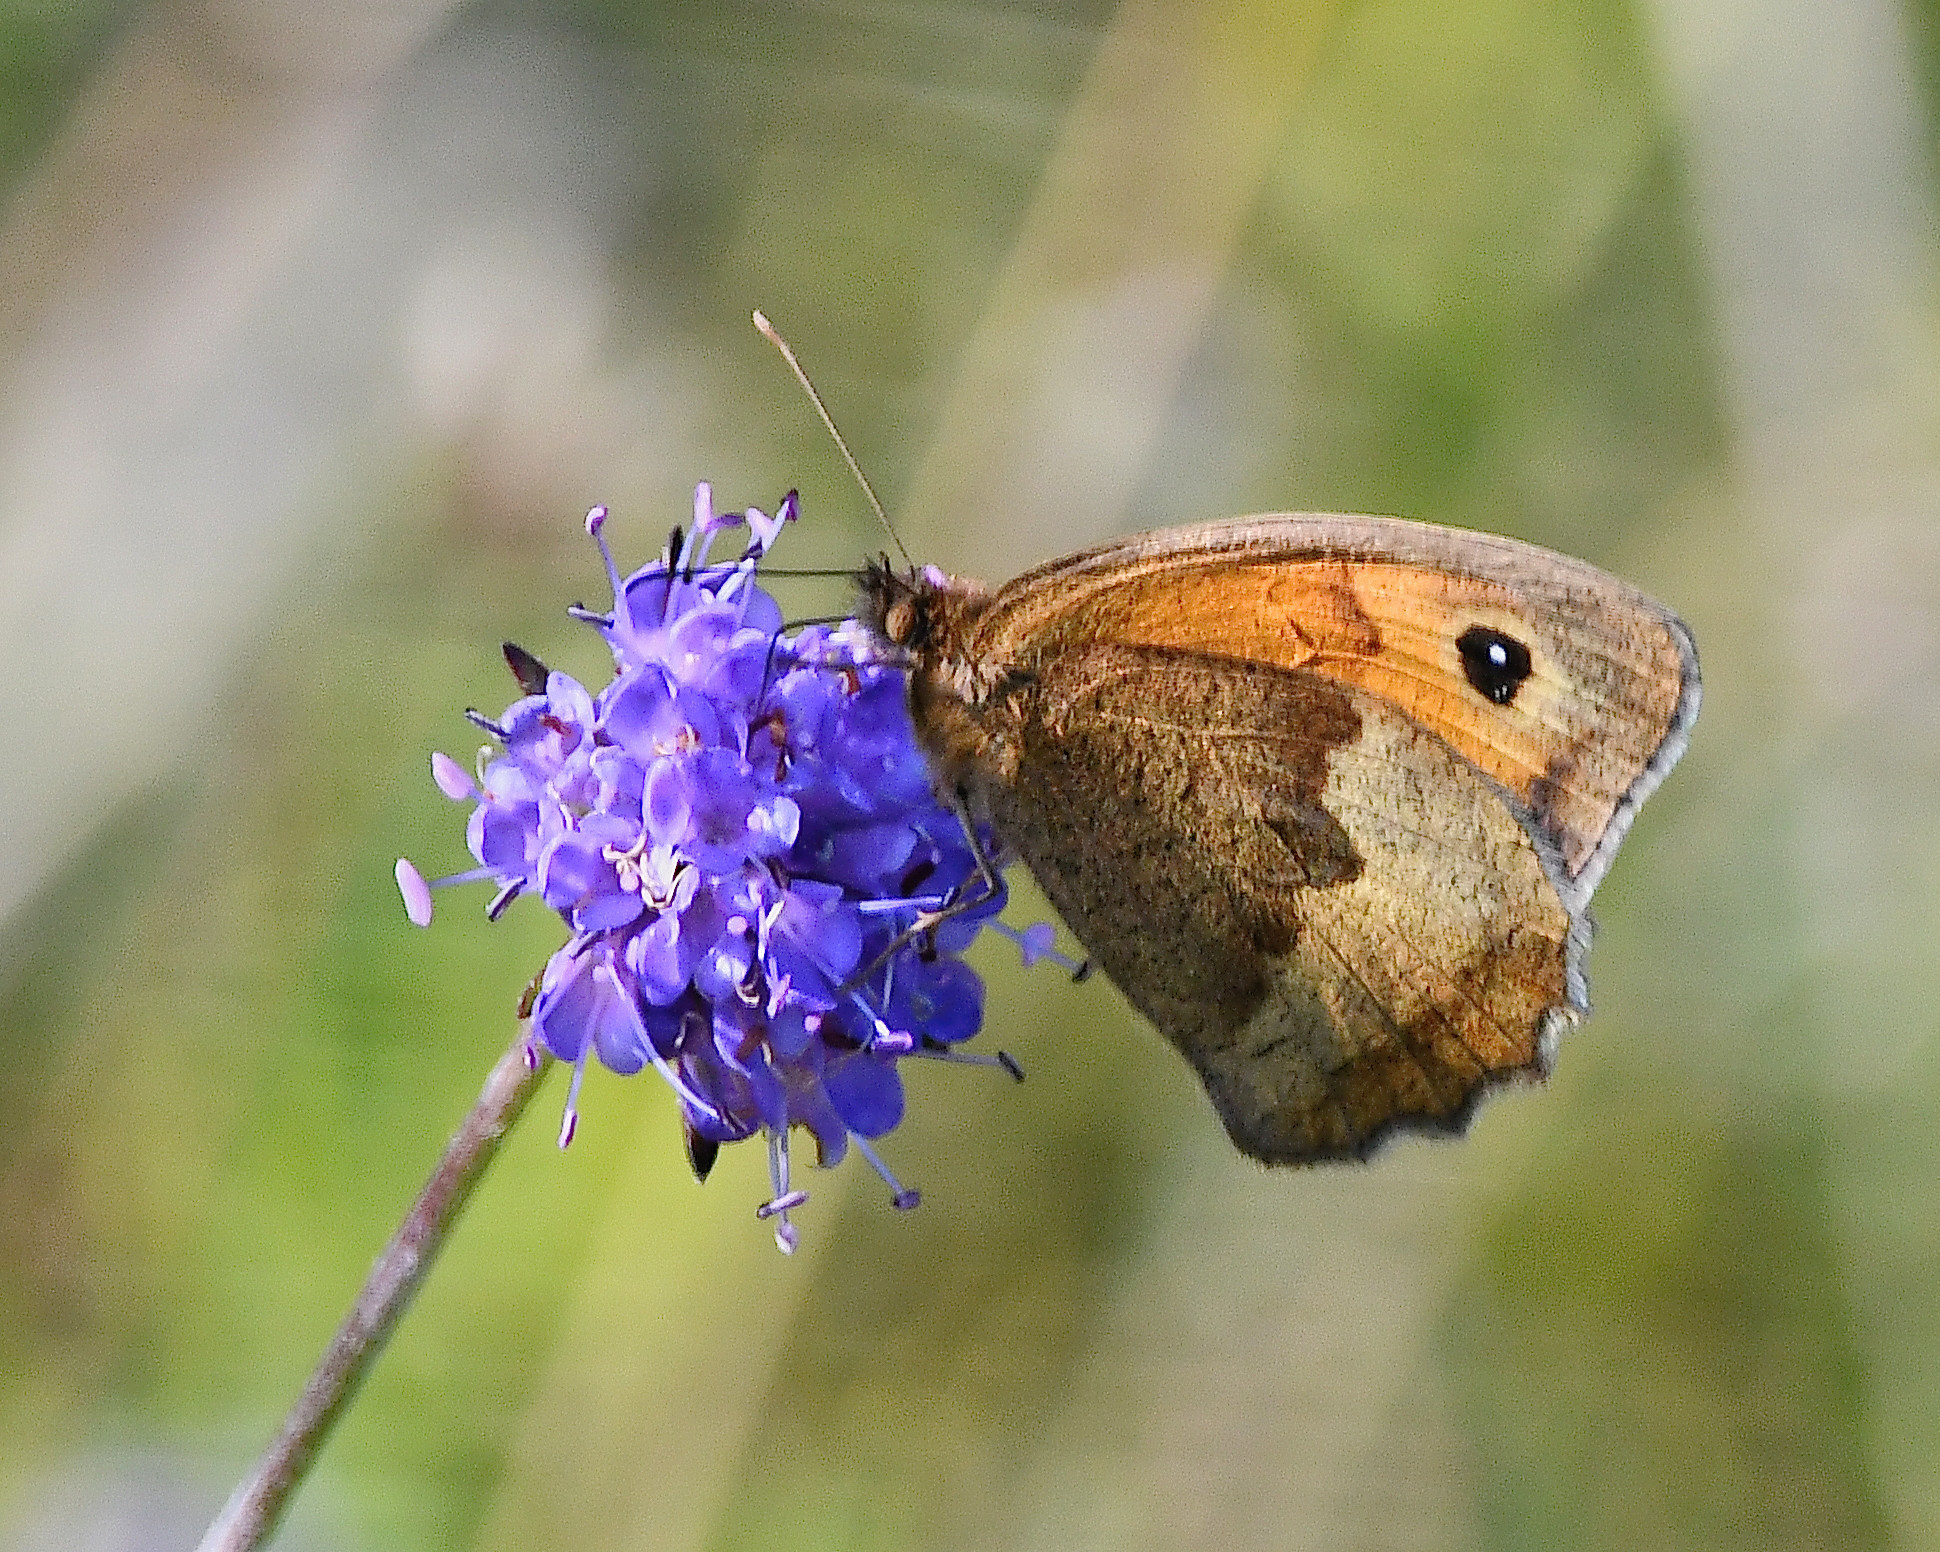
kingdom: Animalia
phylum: Arthropoda
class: Insecta
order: Lepidoptera
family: Nymphalidae
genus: Maniola
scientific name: Maniola jurtina
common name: Meadow brown
